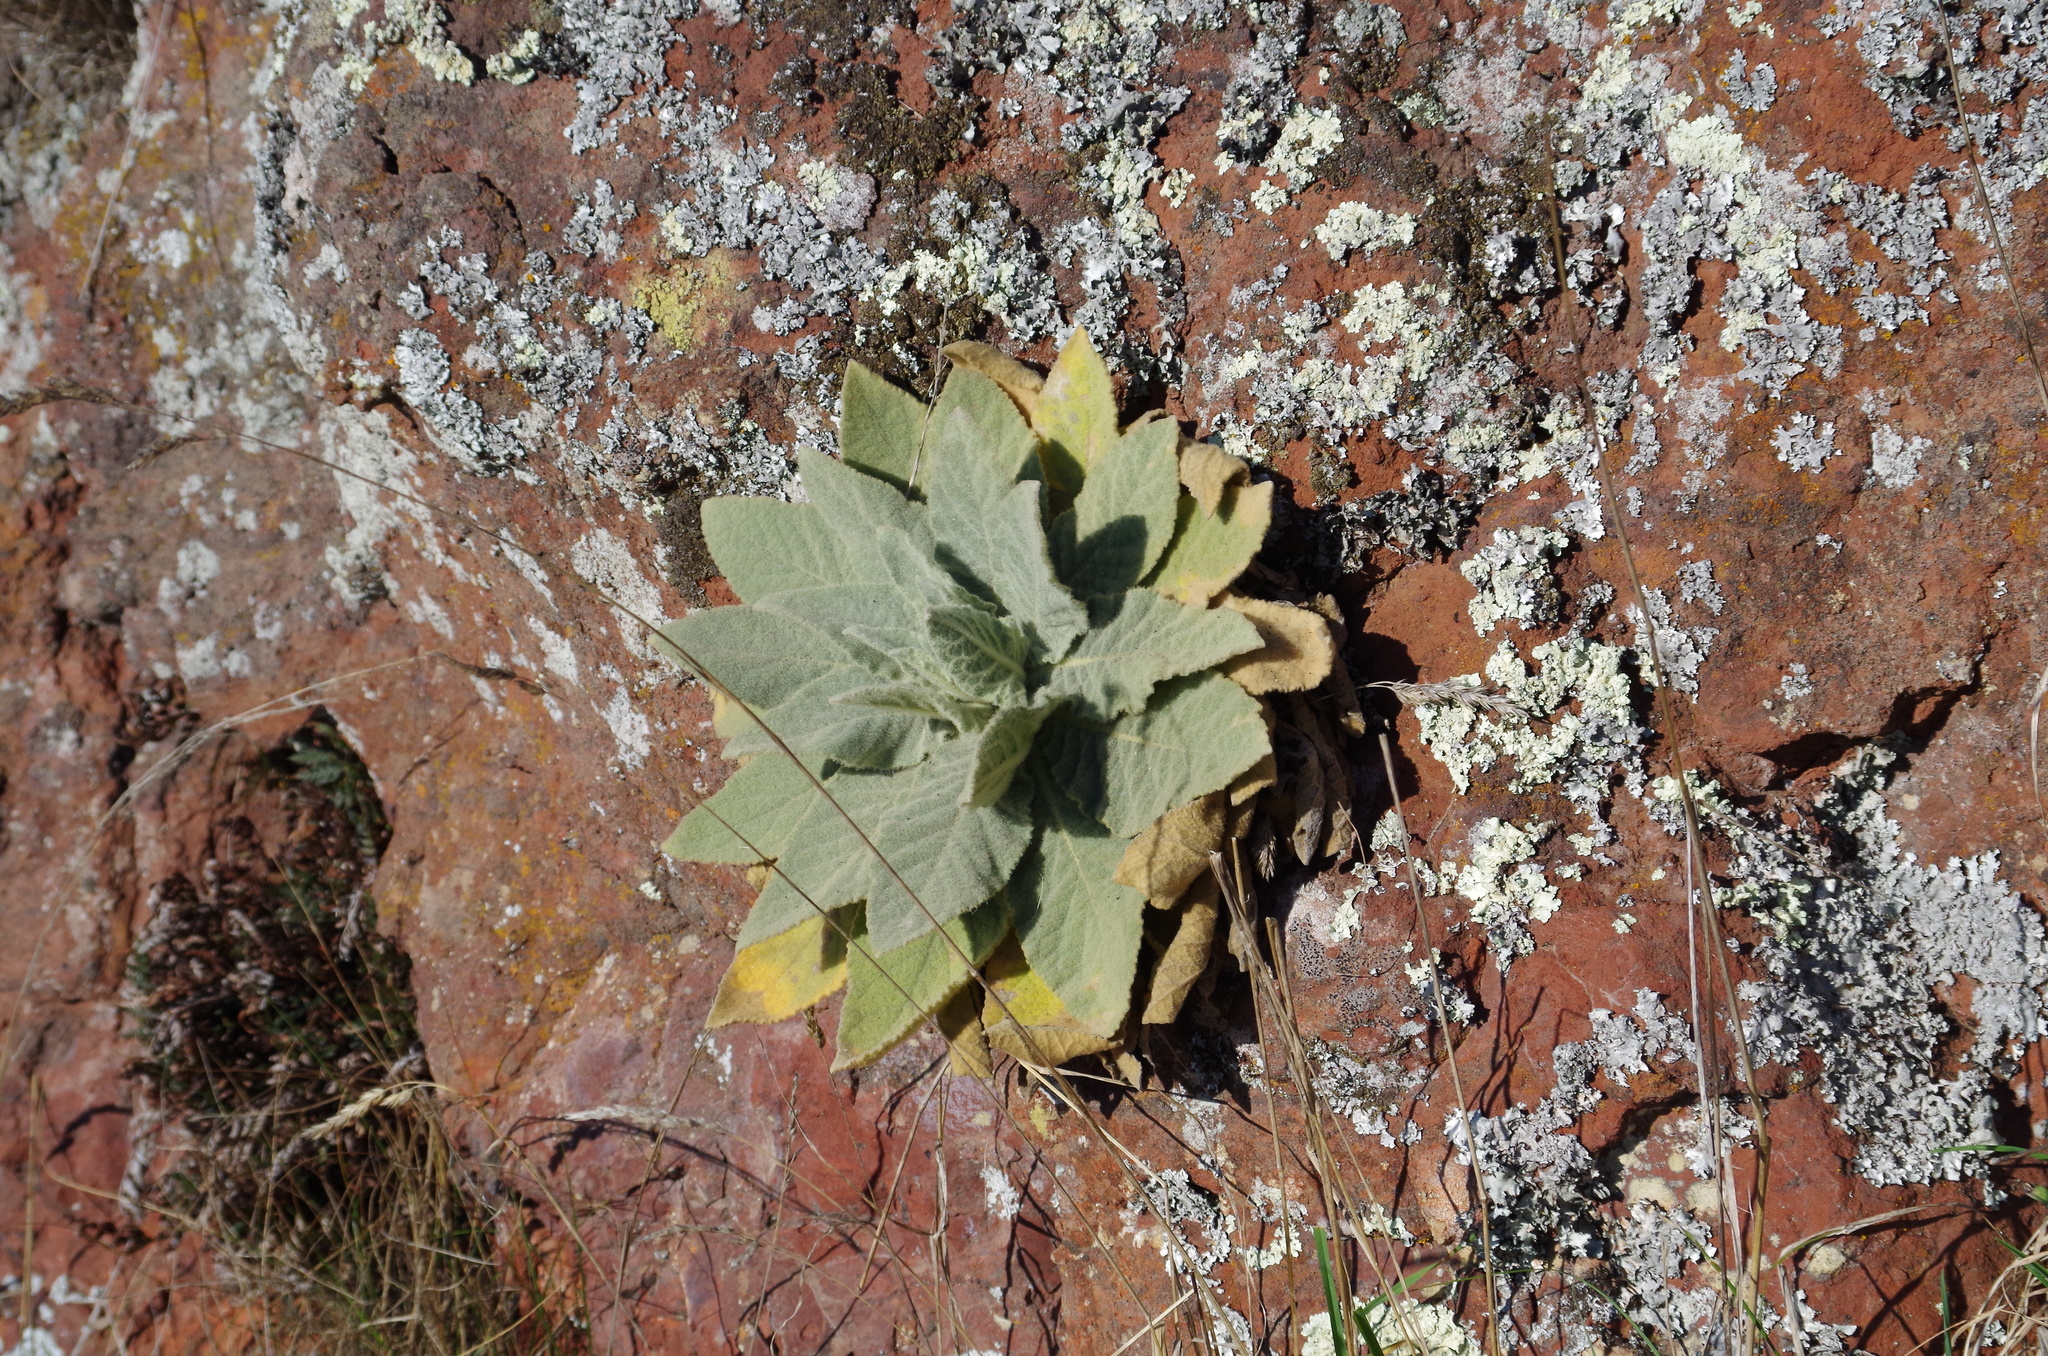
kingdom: Plantae
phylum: Tracheophyta
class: Magnoliopsida
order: Lamiales
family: Scrophulariaceae
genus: Verbascum
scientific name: Verbascum thapsus
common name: Common mullein
